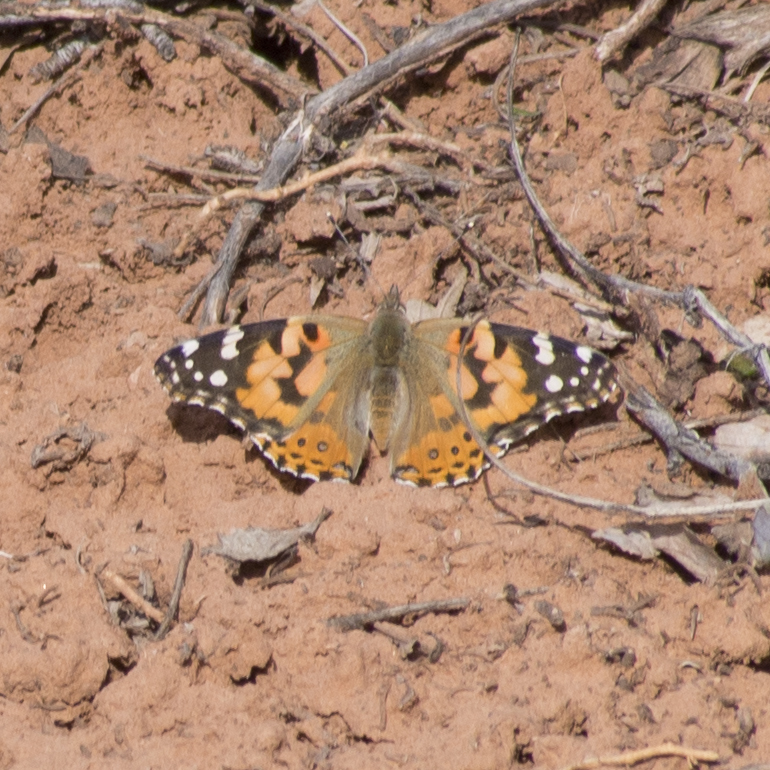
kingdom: Animalia
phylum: Arthropoda
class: Insecta
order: Lepidoptera
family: Nymphalidae
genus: Vanessa
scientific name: Vanessa cardui
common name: Painted lady
